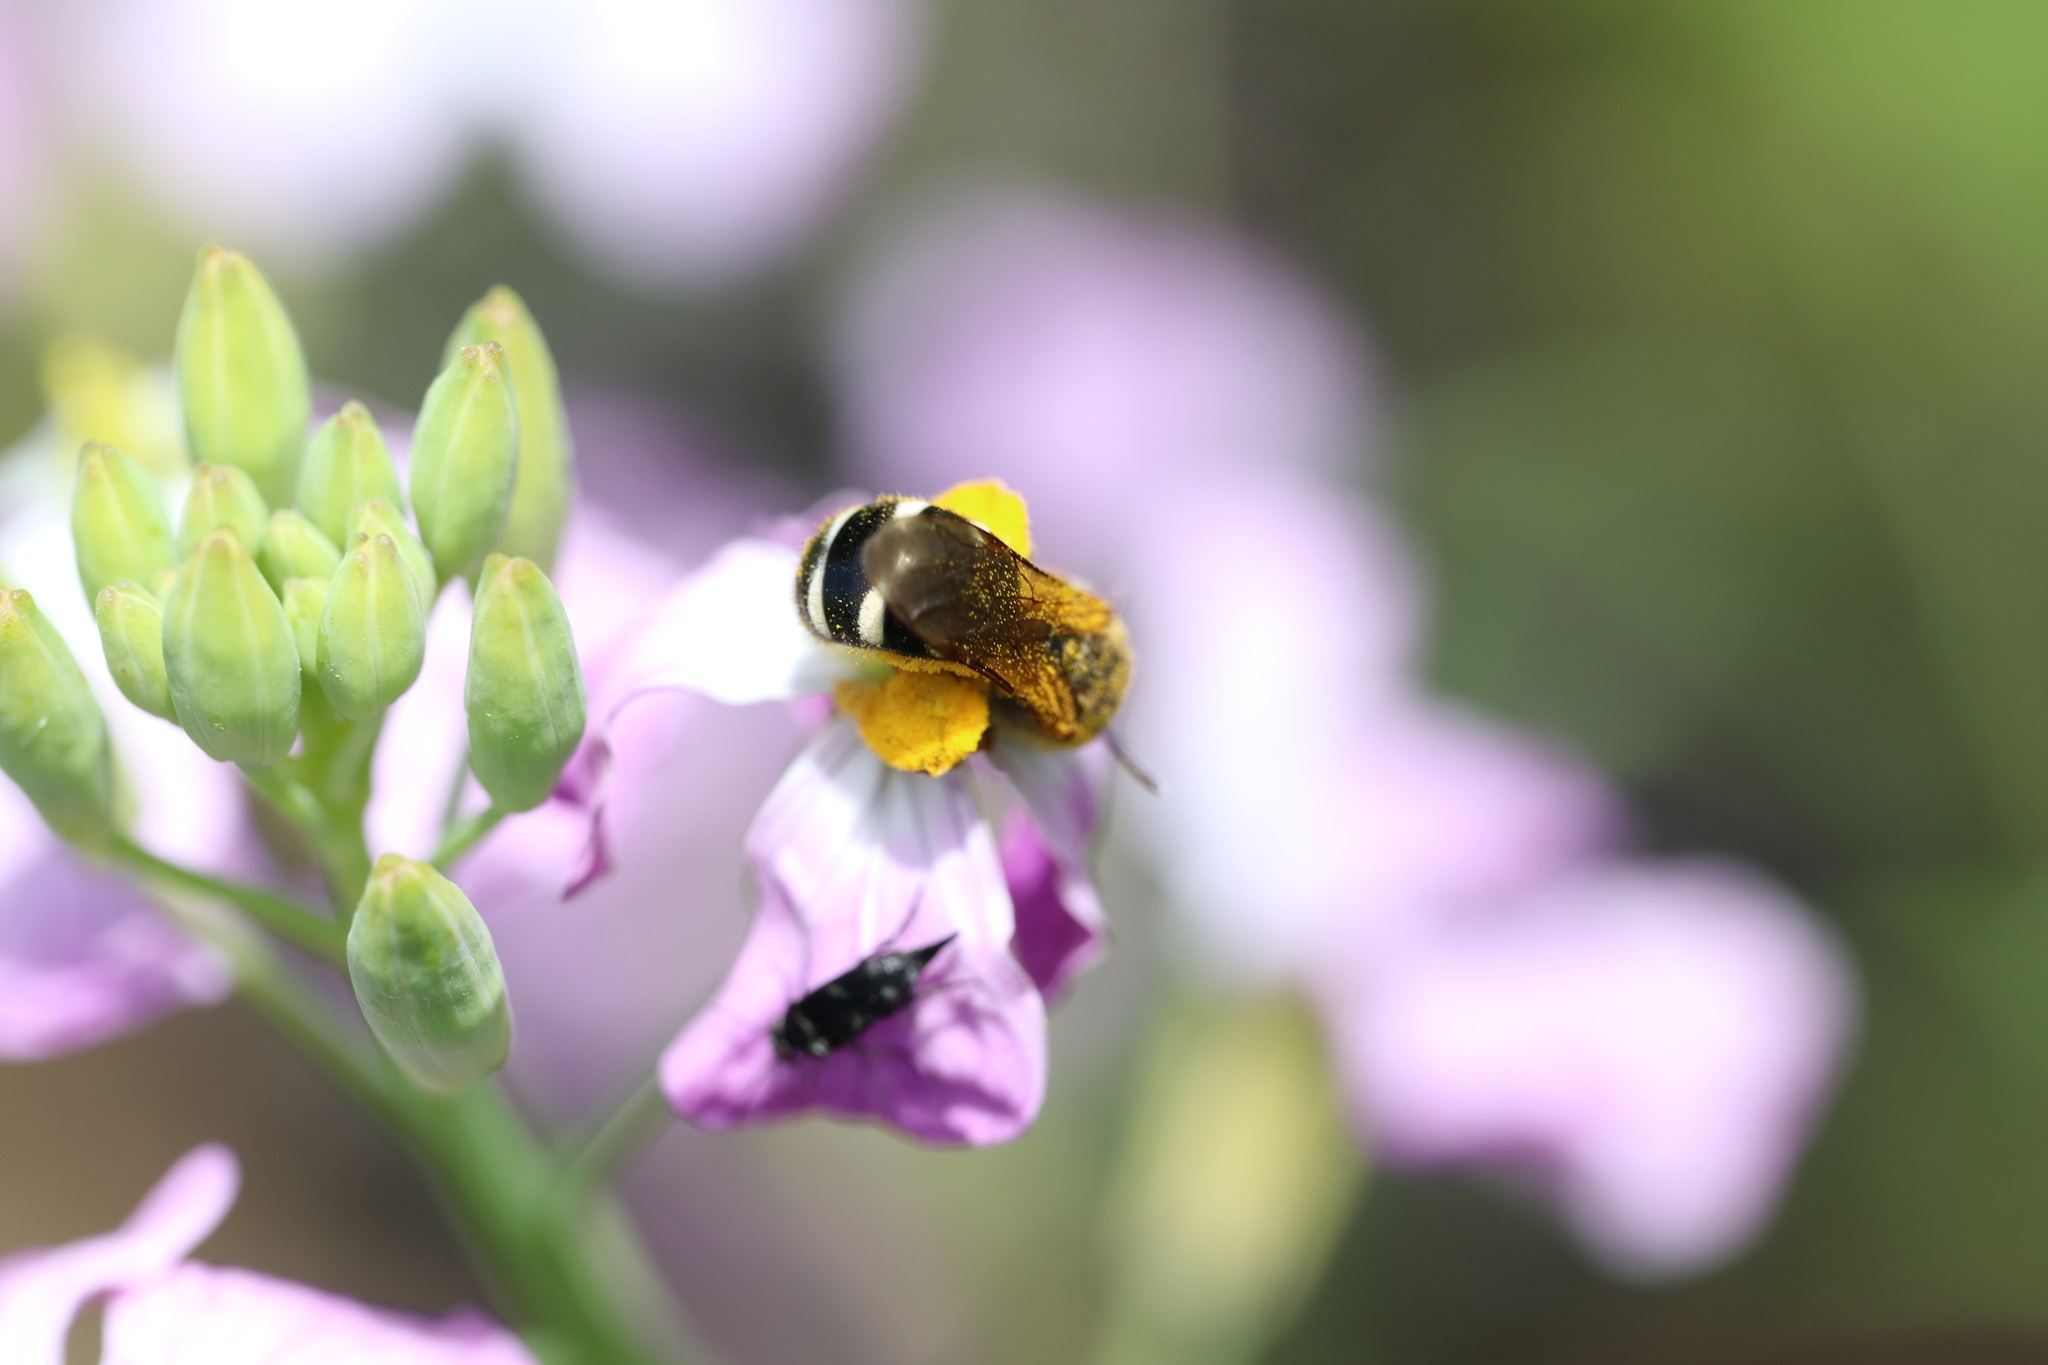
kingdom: Animalia
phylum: Arthropoda
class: Insecta
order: Hymenoptera
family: Halictidae
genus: Ruizantheda
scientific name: Ruizantheda proxima
